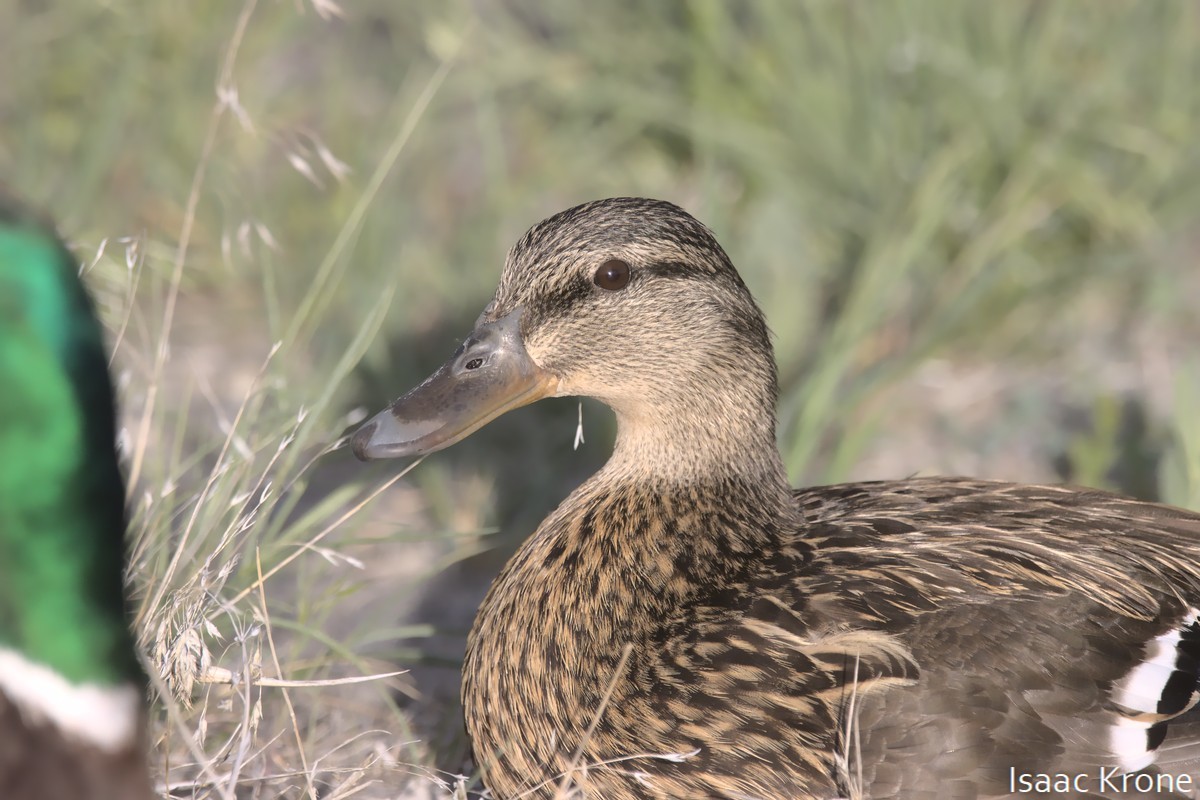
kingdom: Animalia
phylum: Chordata
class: Aves
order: Anseriformes
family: Anatidae
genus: Anas
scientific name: Anas platyrhynchos
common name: Mallard
